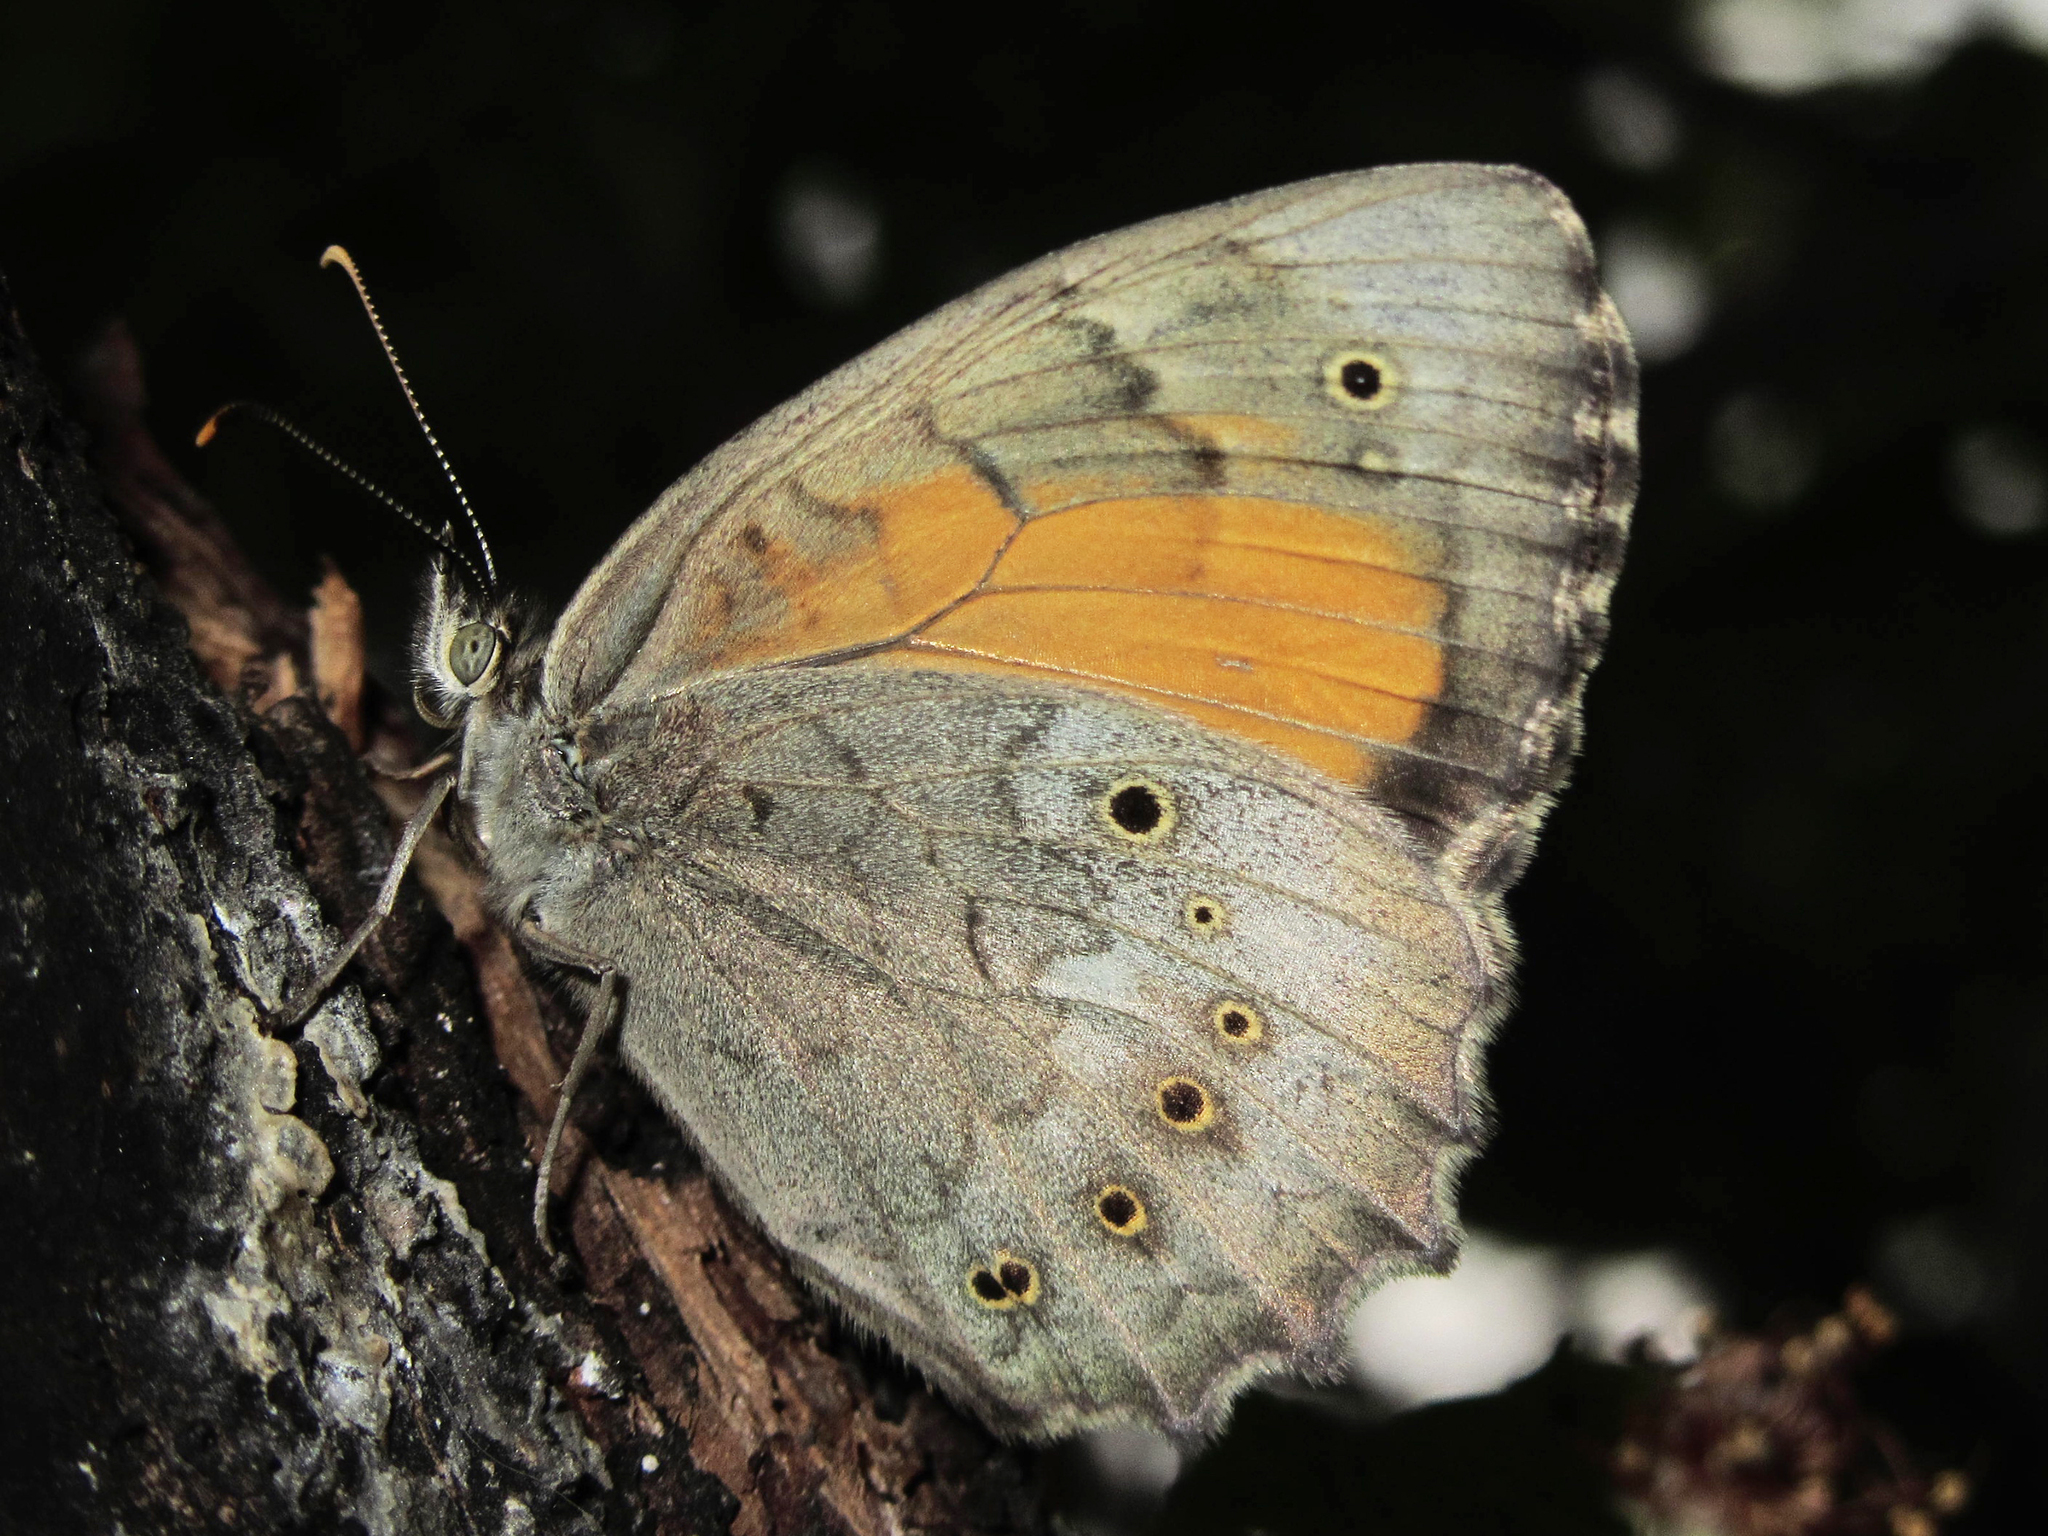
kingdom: Animalia
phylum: Arthropoda
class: Insecta
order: Lepidoptera
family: Nymphalidae
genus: Kirinia
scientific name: Kirinia climene
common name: Lesser lattice brown
